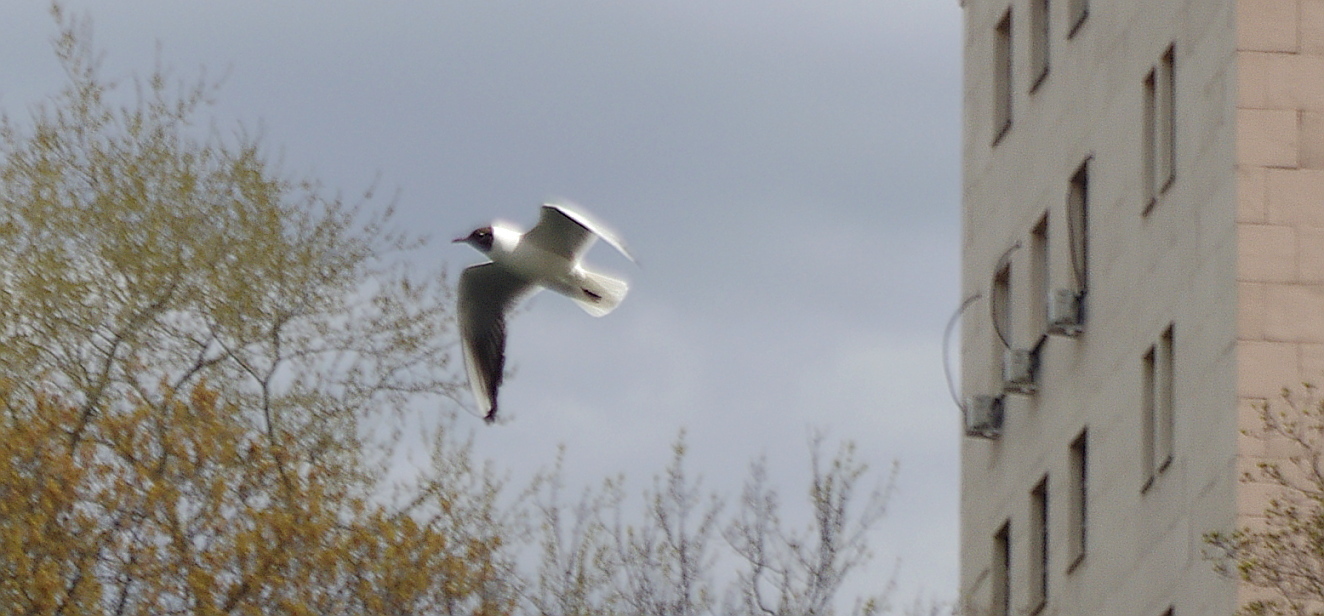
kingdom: Animalia
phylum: Chordata
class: Aves
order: Charadriiformes
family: Laridae
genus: Chroicocephalus
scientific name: Chroicocephalus ridibundus
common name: Black-headed gull
